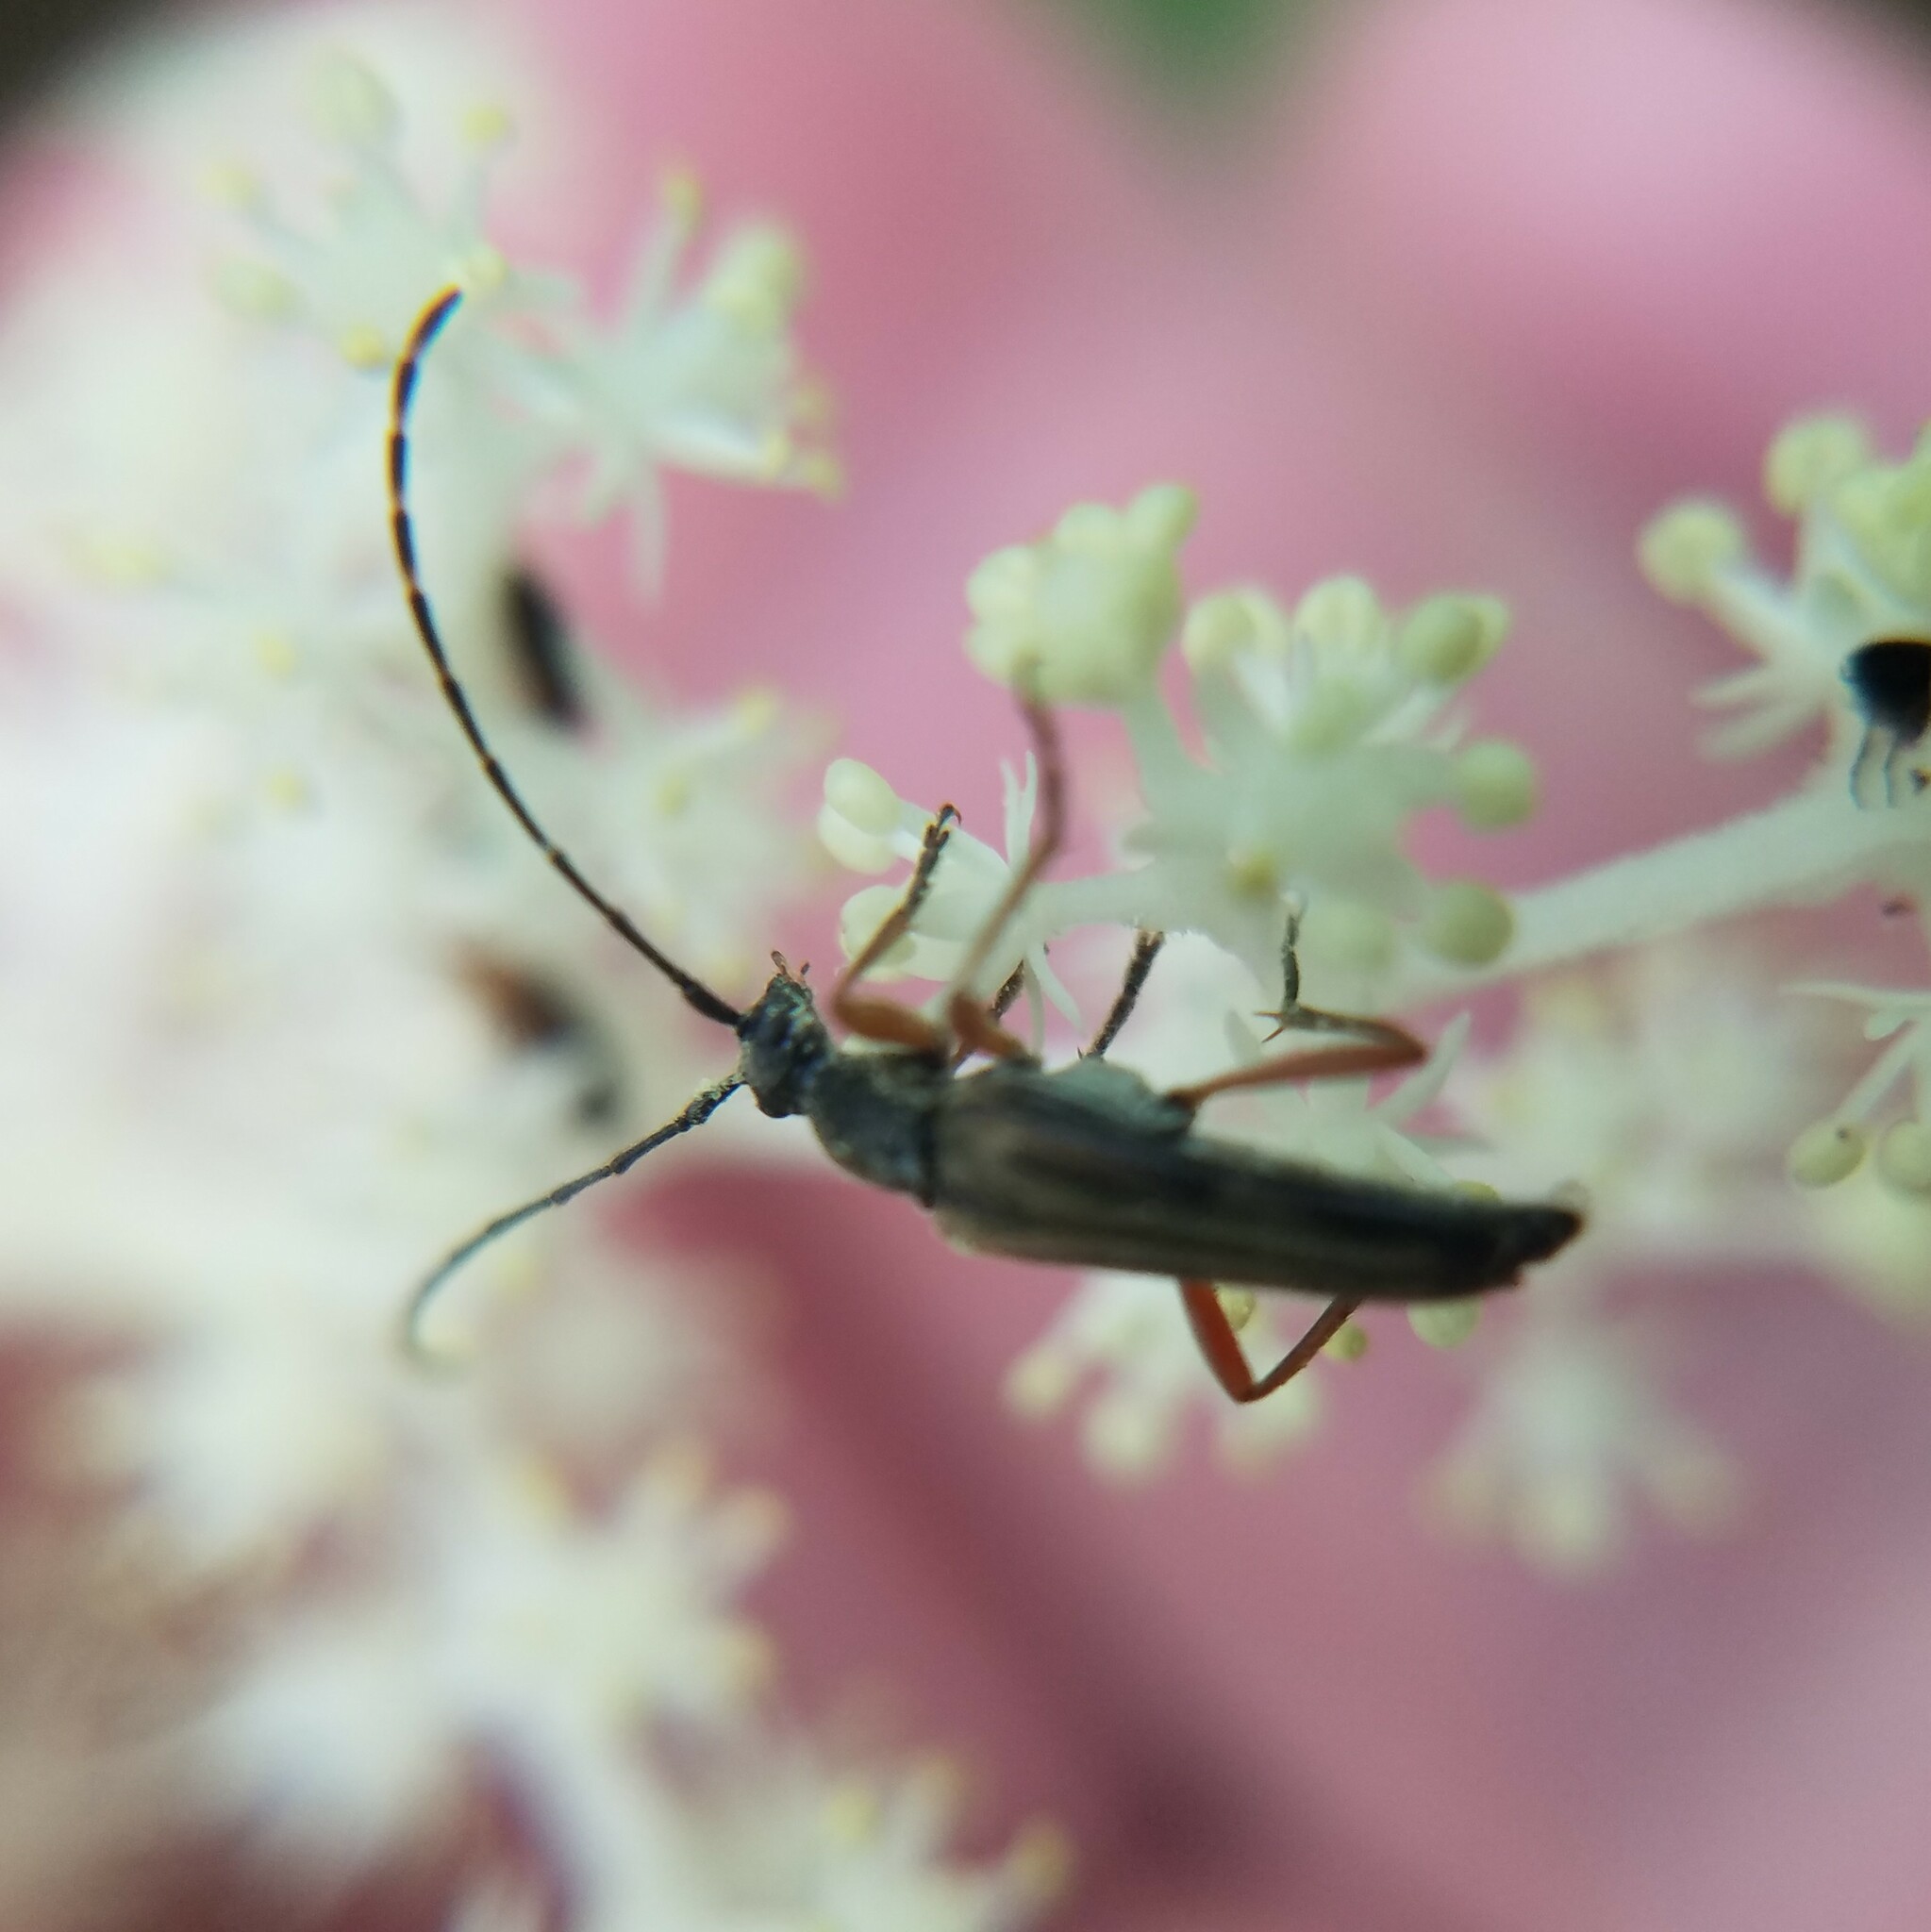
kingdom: Animalia
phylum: Arthropoda
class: Insecta
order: Coleoptera
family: Cerambycidae
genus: Analeptura
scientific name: Analeptura lineola
